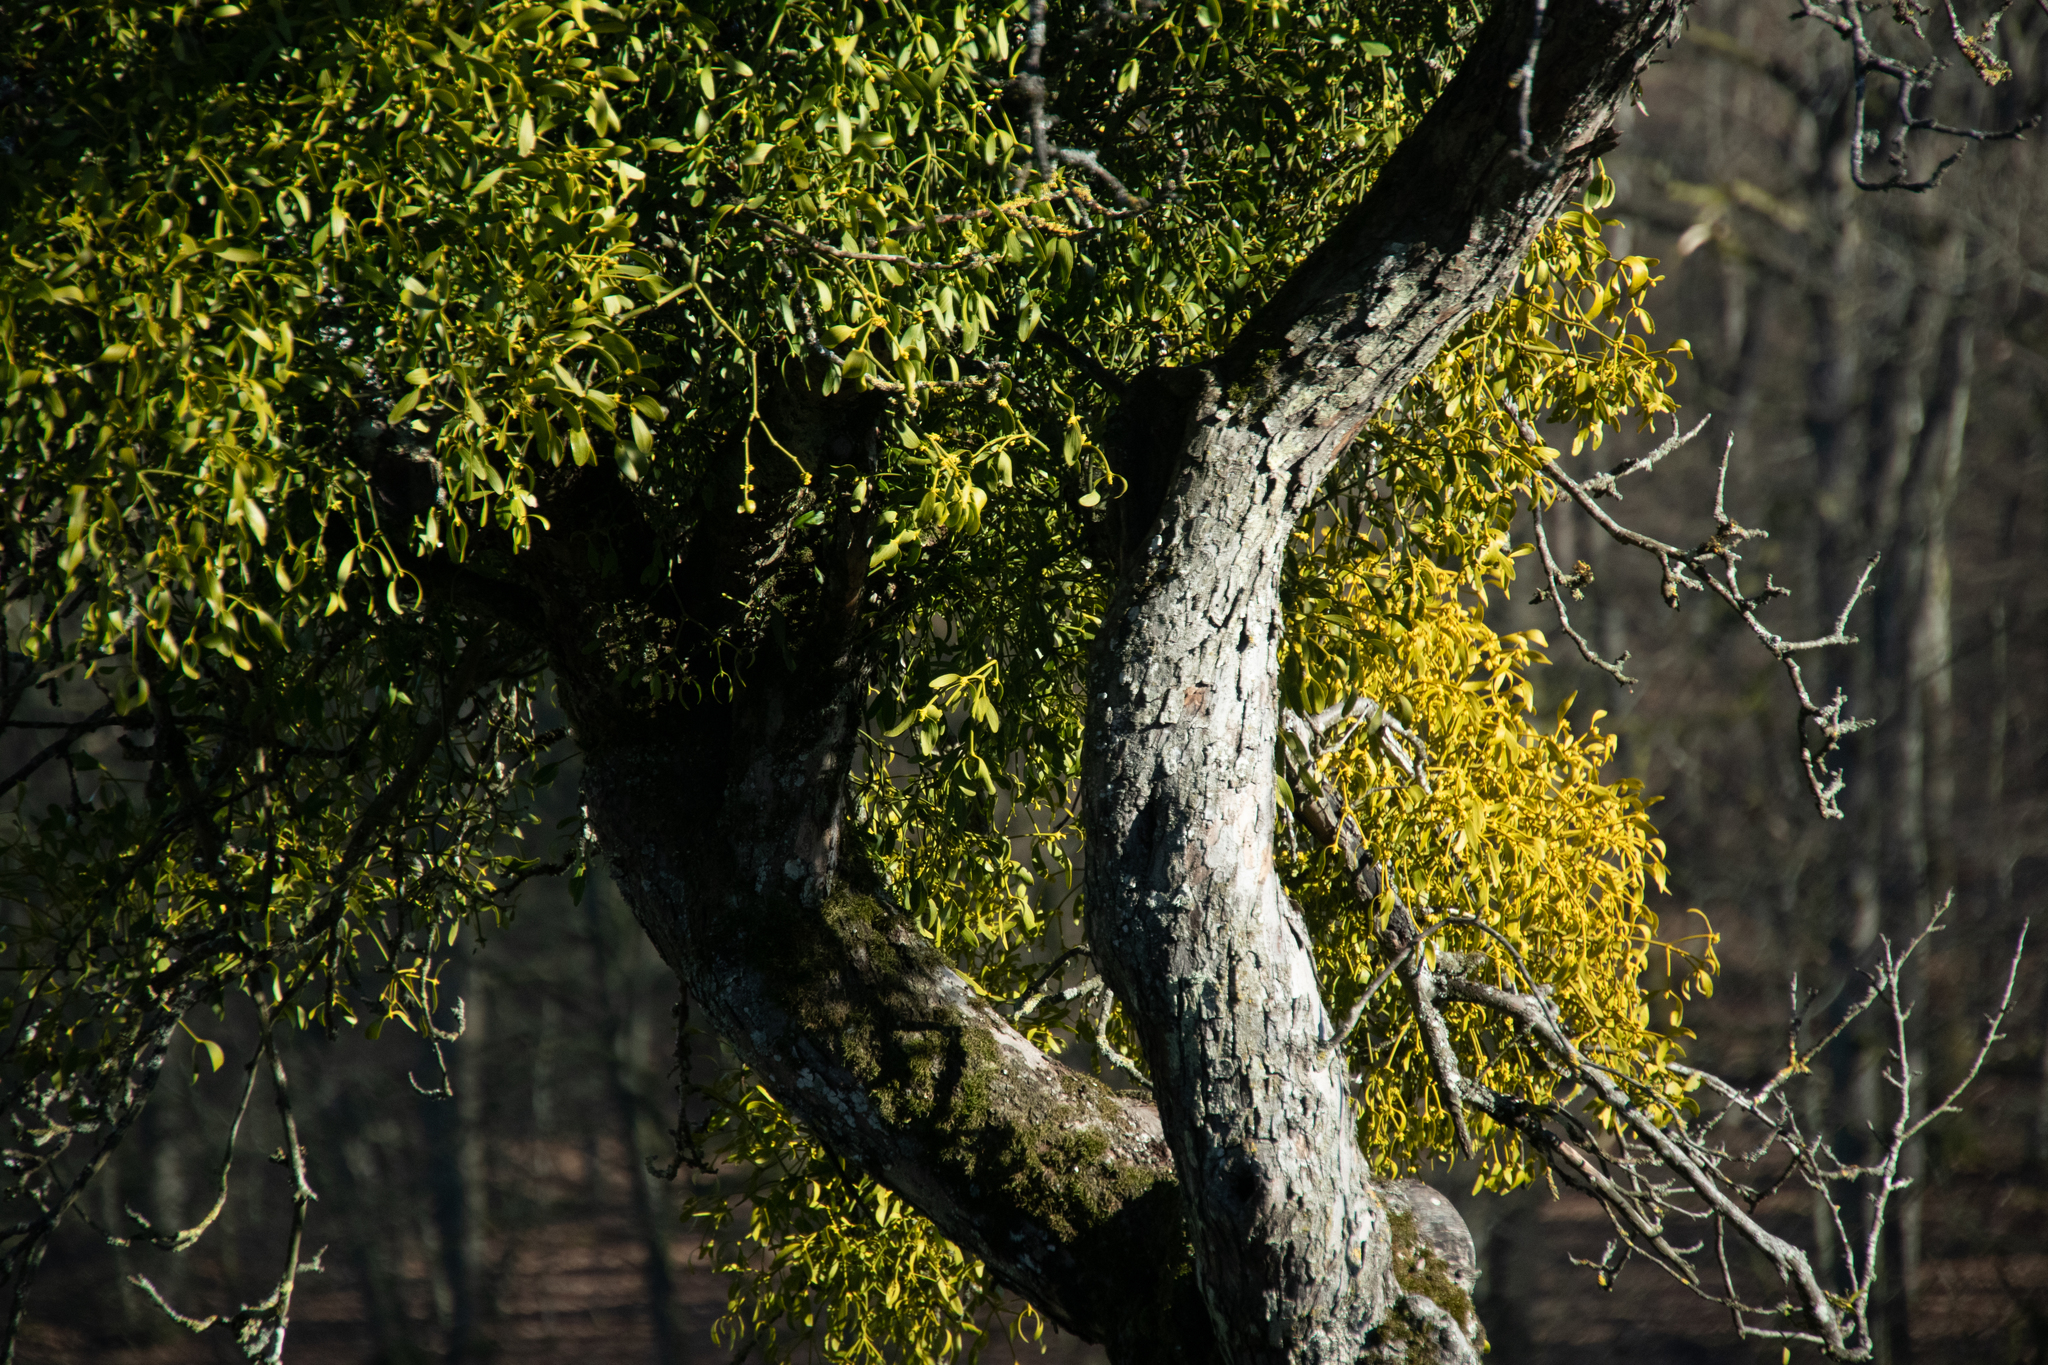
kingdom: Plantae
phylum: Tracheophyta
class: Magnoliopsida
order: Santalales
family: Viscaceae
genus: Viscum
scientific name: Viscum album
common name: Mistletoe
